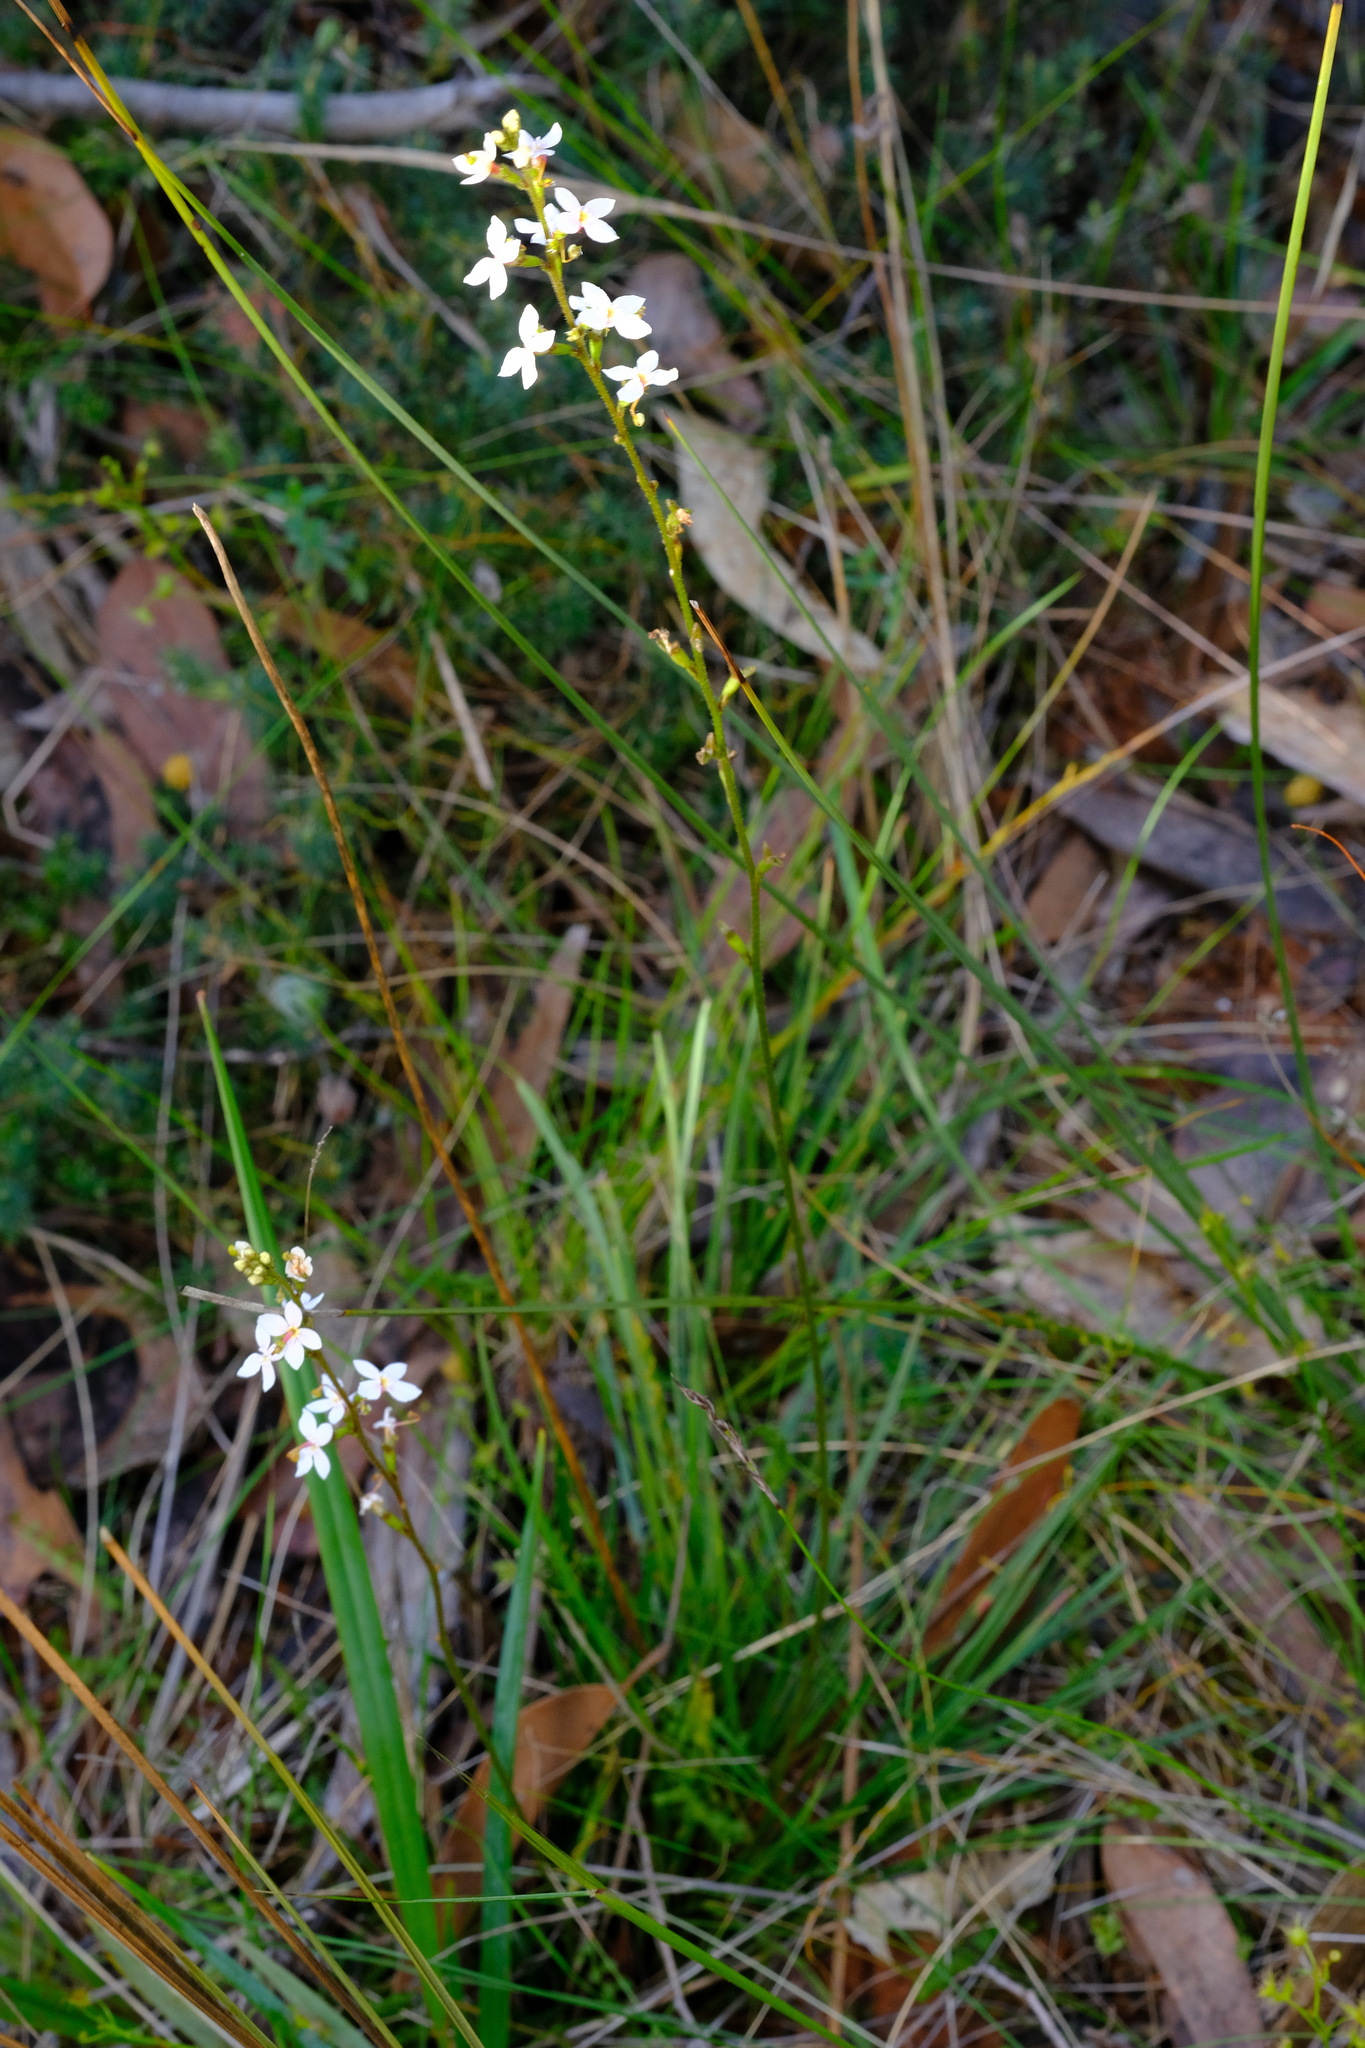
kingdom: Plantae
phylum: Tracheophyta
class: Magnoliopsida
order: Asterales
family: Stylidiaceae
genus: Stylidium
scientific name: Stylidium graminifolium
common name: Grass triggerplant
